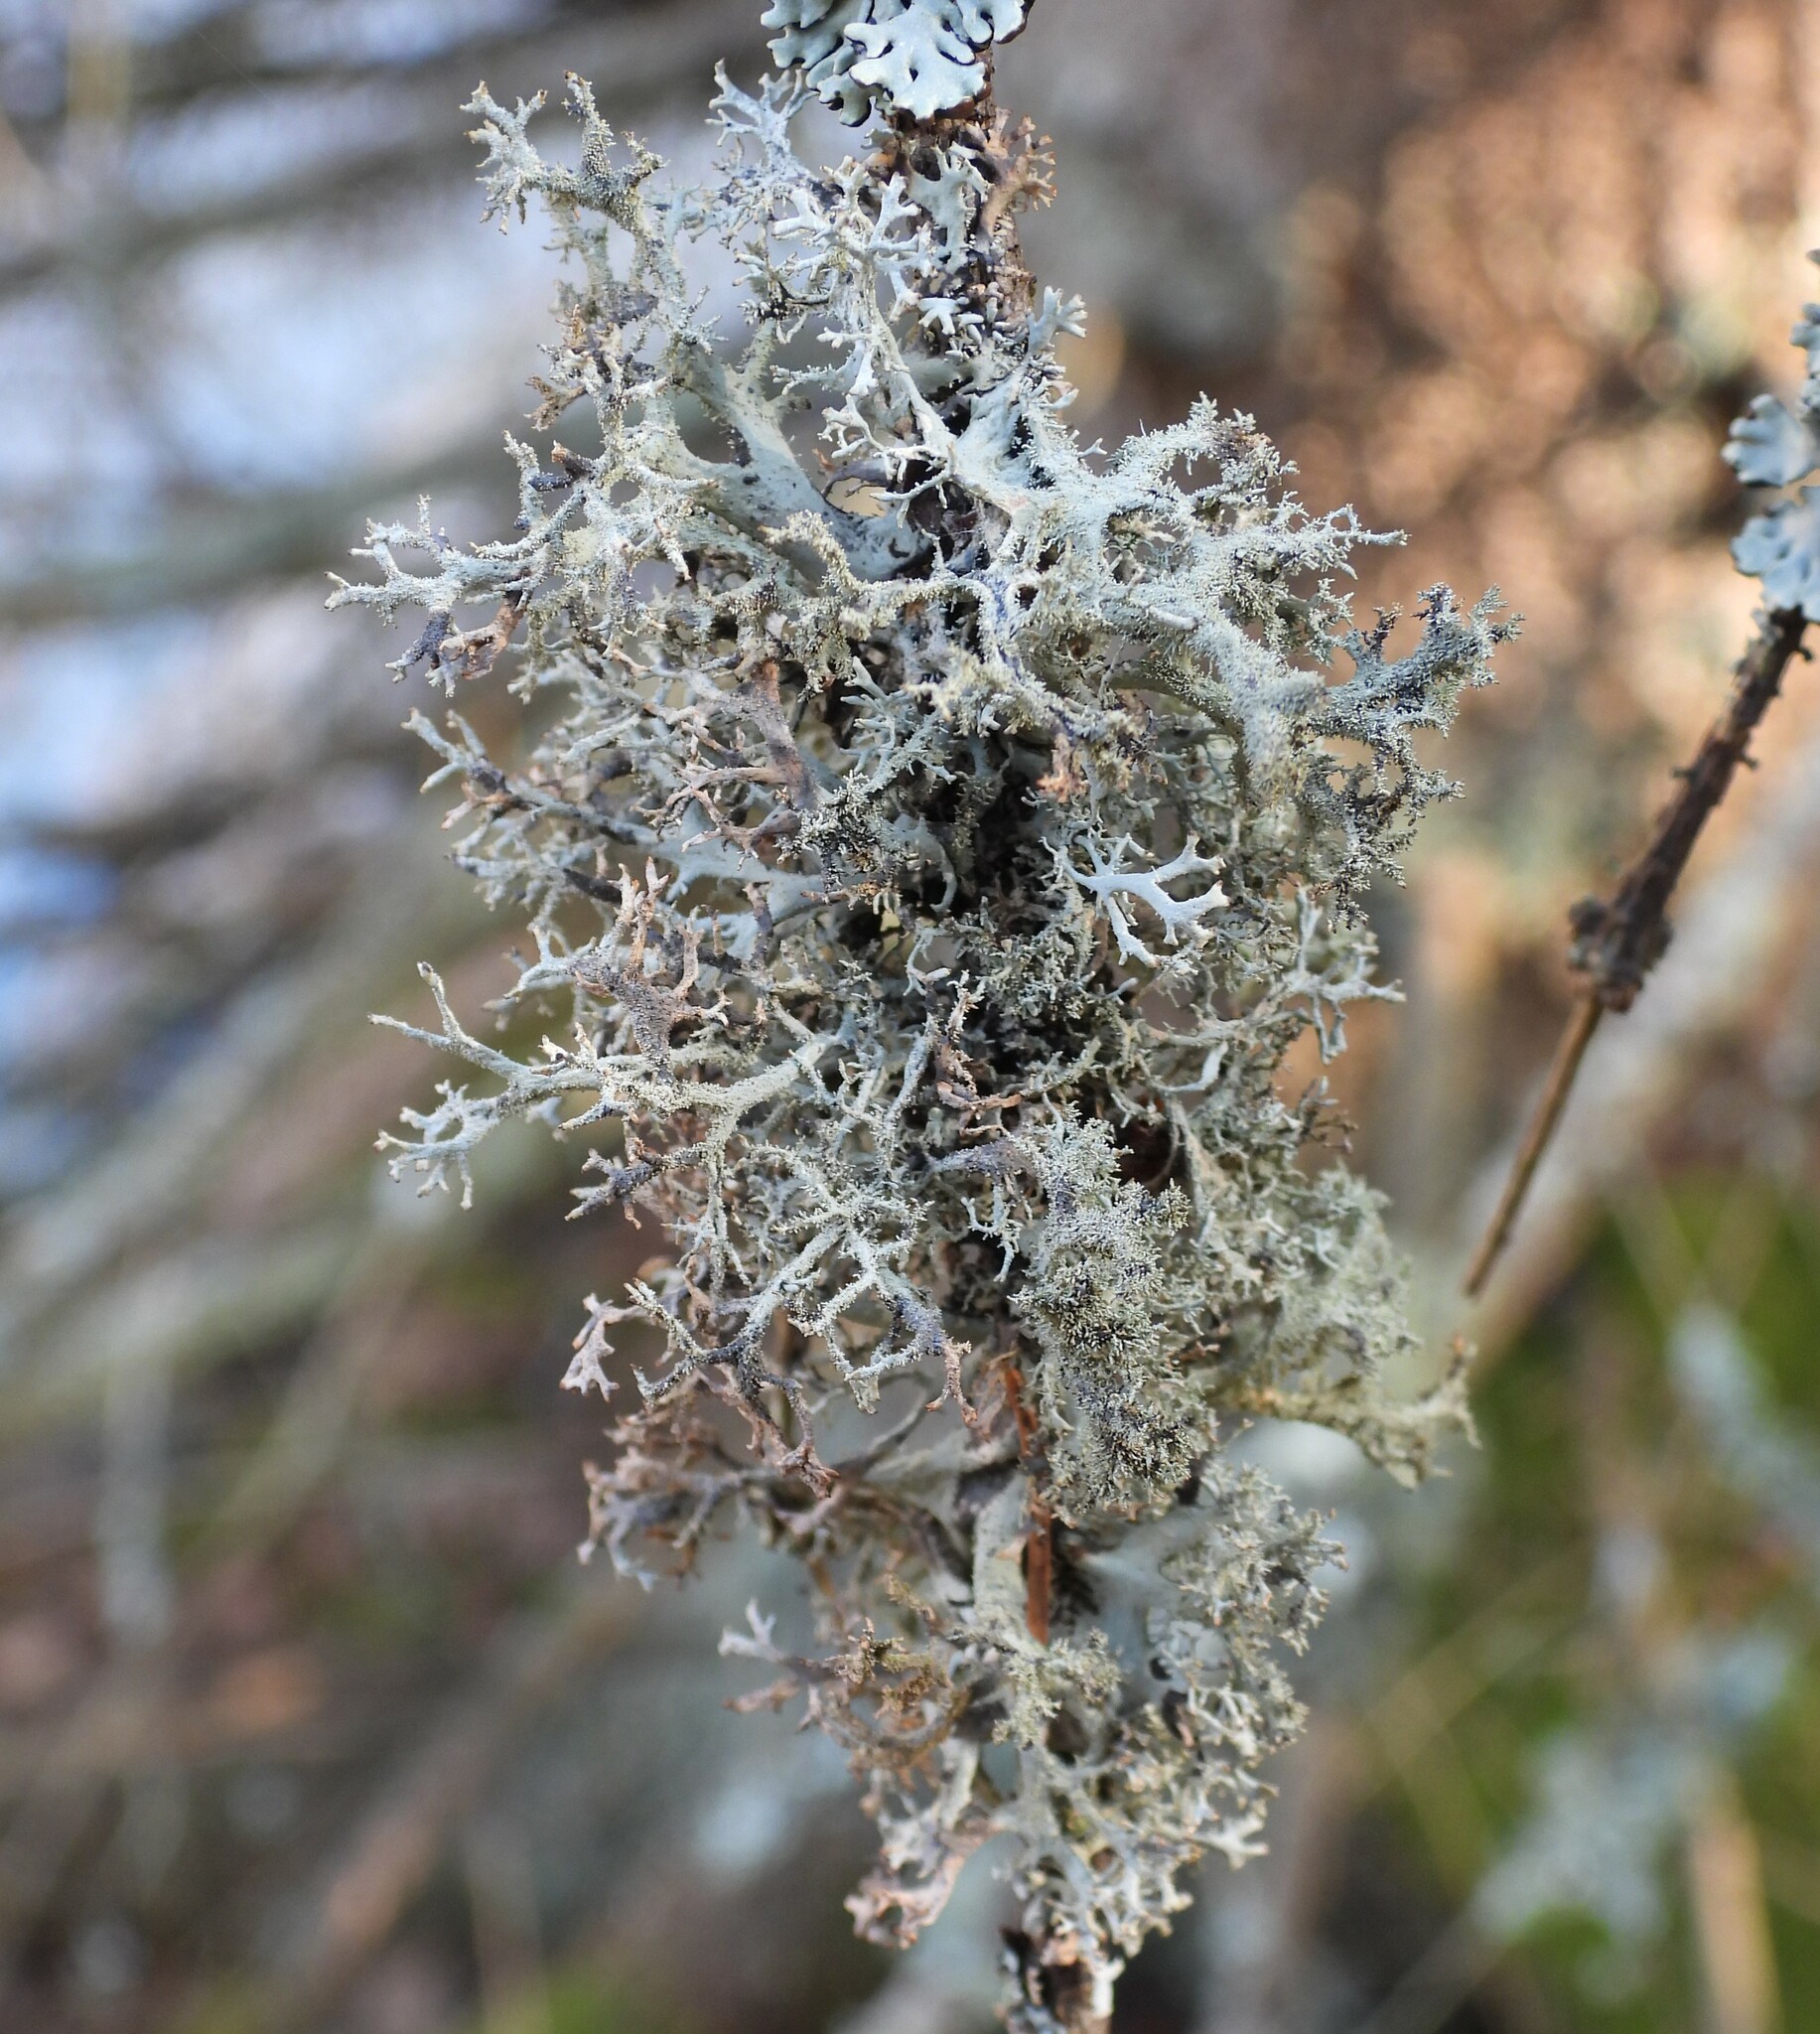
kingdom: Fungi
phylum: Ascomycota
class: Lecanoromycetes
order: Lecanorales
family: Parmeliaceae
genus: Pseudevernia
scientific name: Pseudevernia furfuracea
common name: Tree moss
